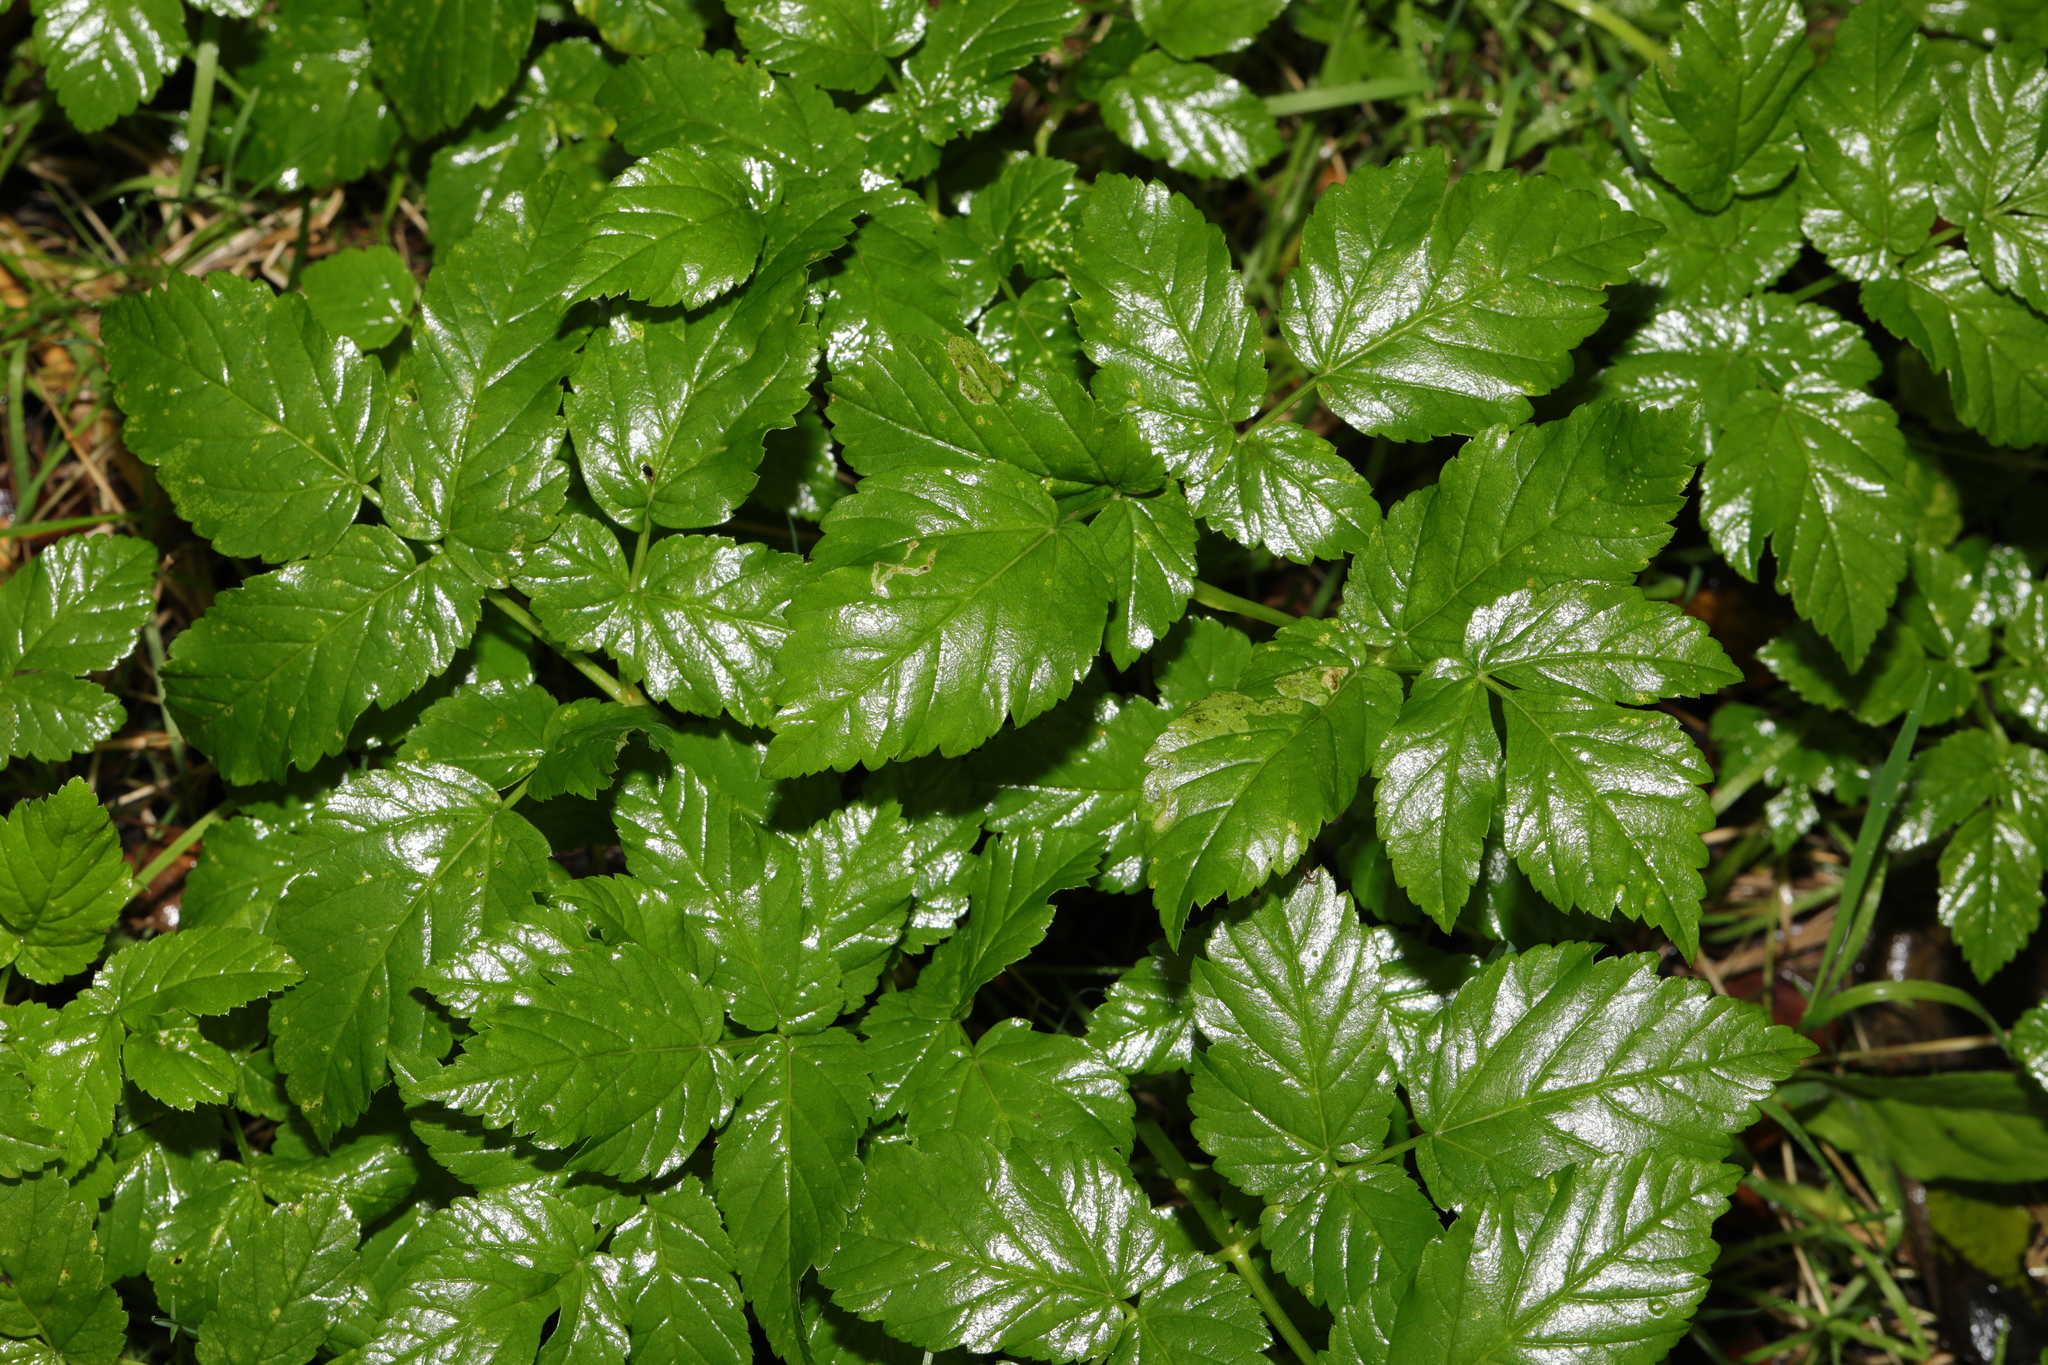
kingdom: Plantae
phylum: Tracheophyta
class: Magnoliopsida
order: Apiales
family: Apiaceae
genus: Aegopodium
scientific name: Aegopodium podagraria
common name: Ground-elder
